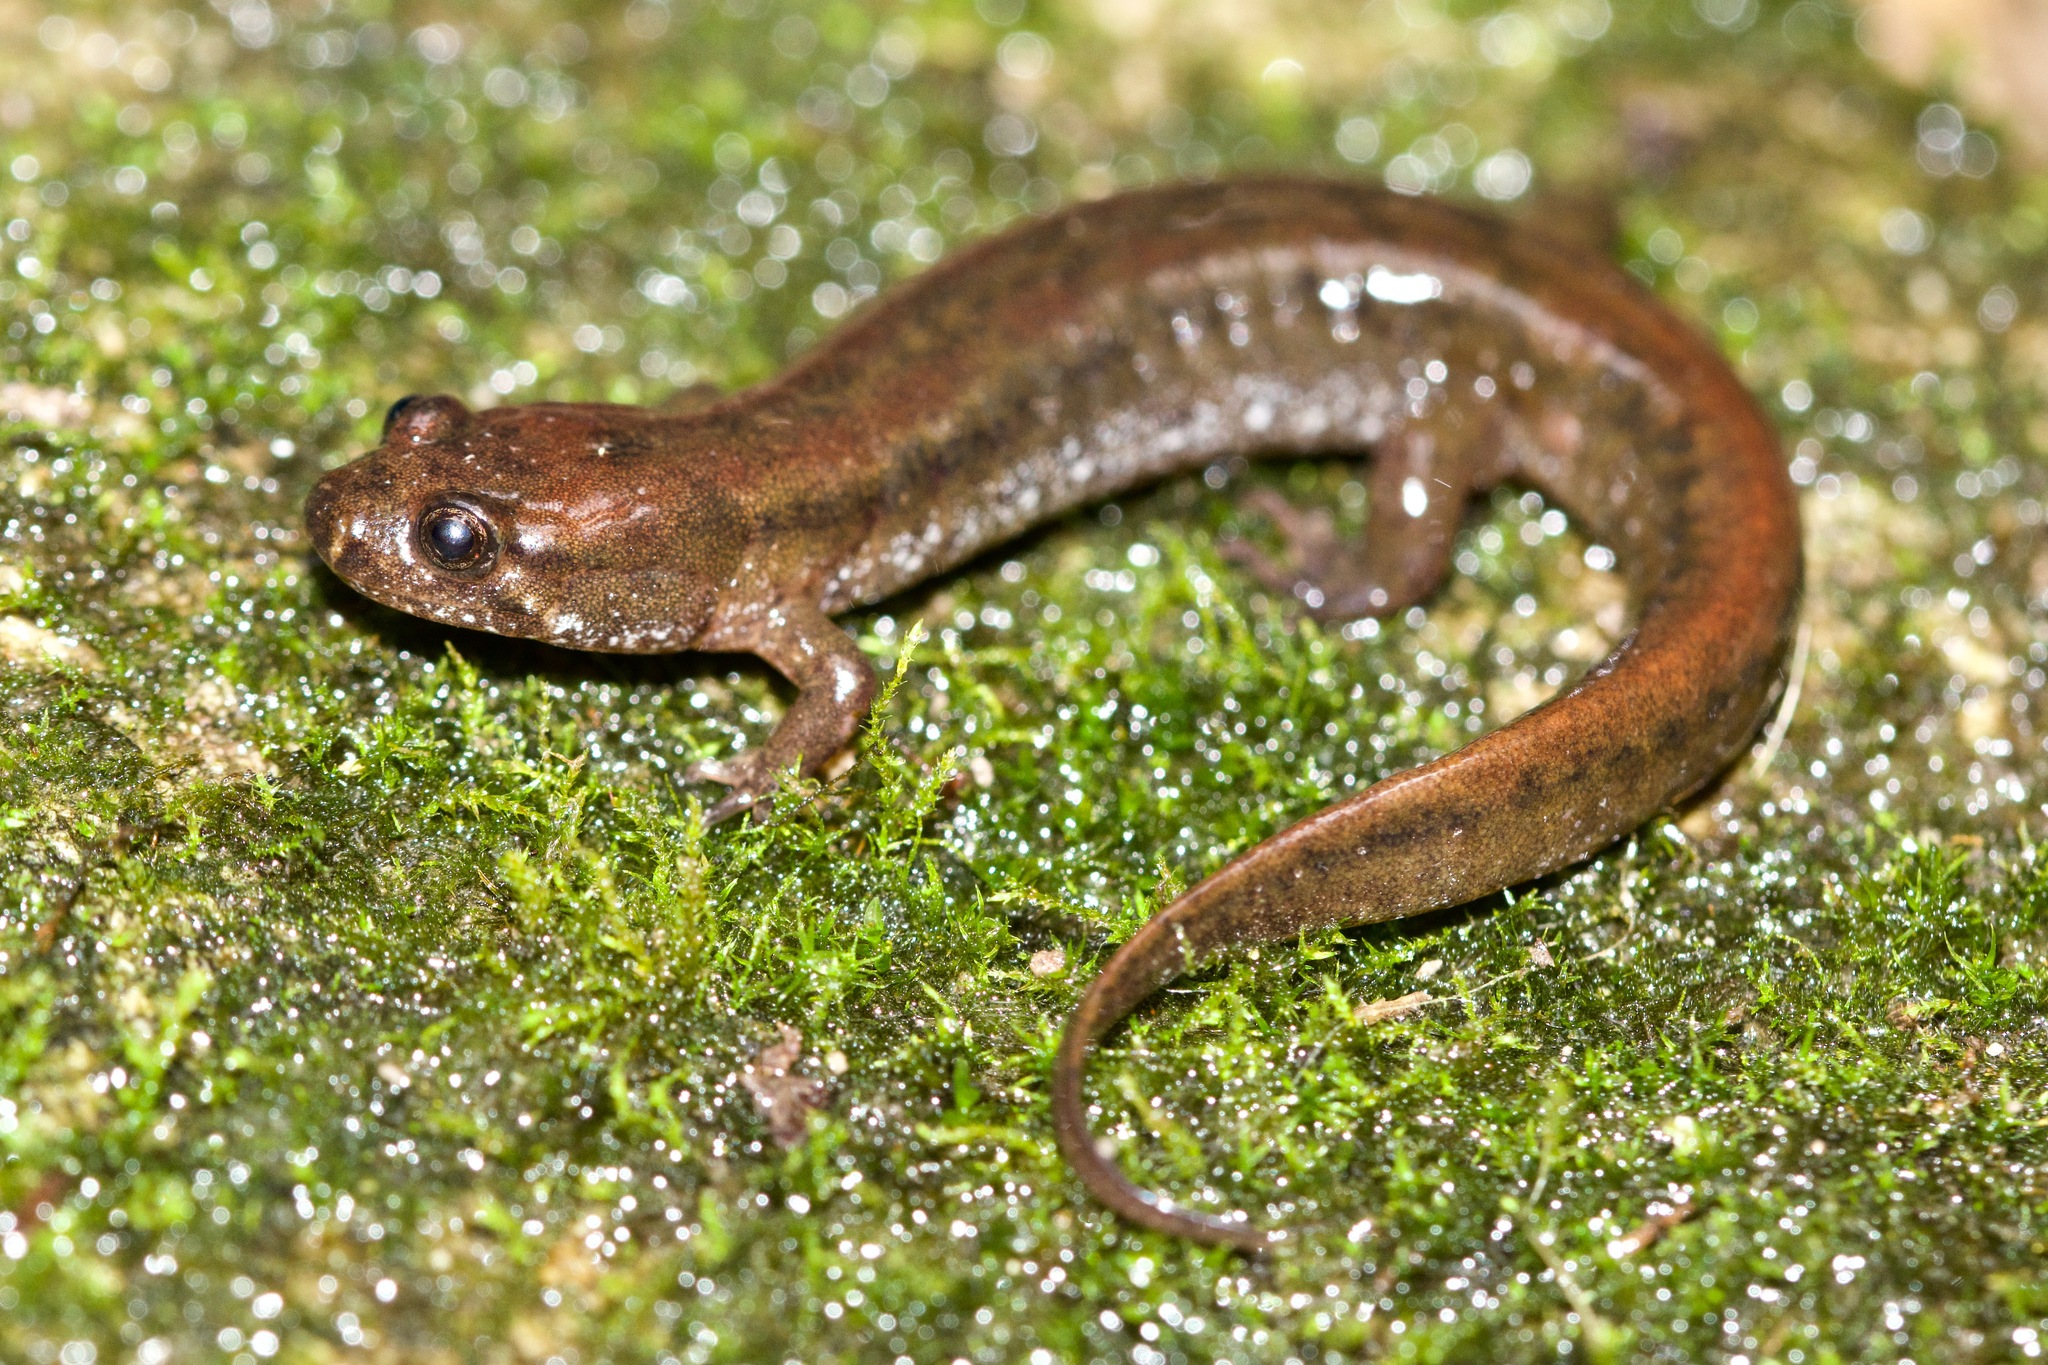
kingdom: Animalia
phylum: Chordata
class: Amphibia
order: Caudata
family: Plethodontidae
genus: Desmognathus
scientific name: Desmognathus fuscus
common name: Northern dusky salamander
